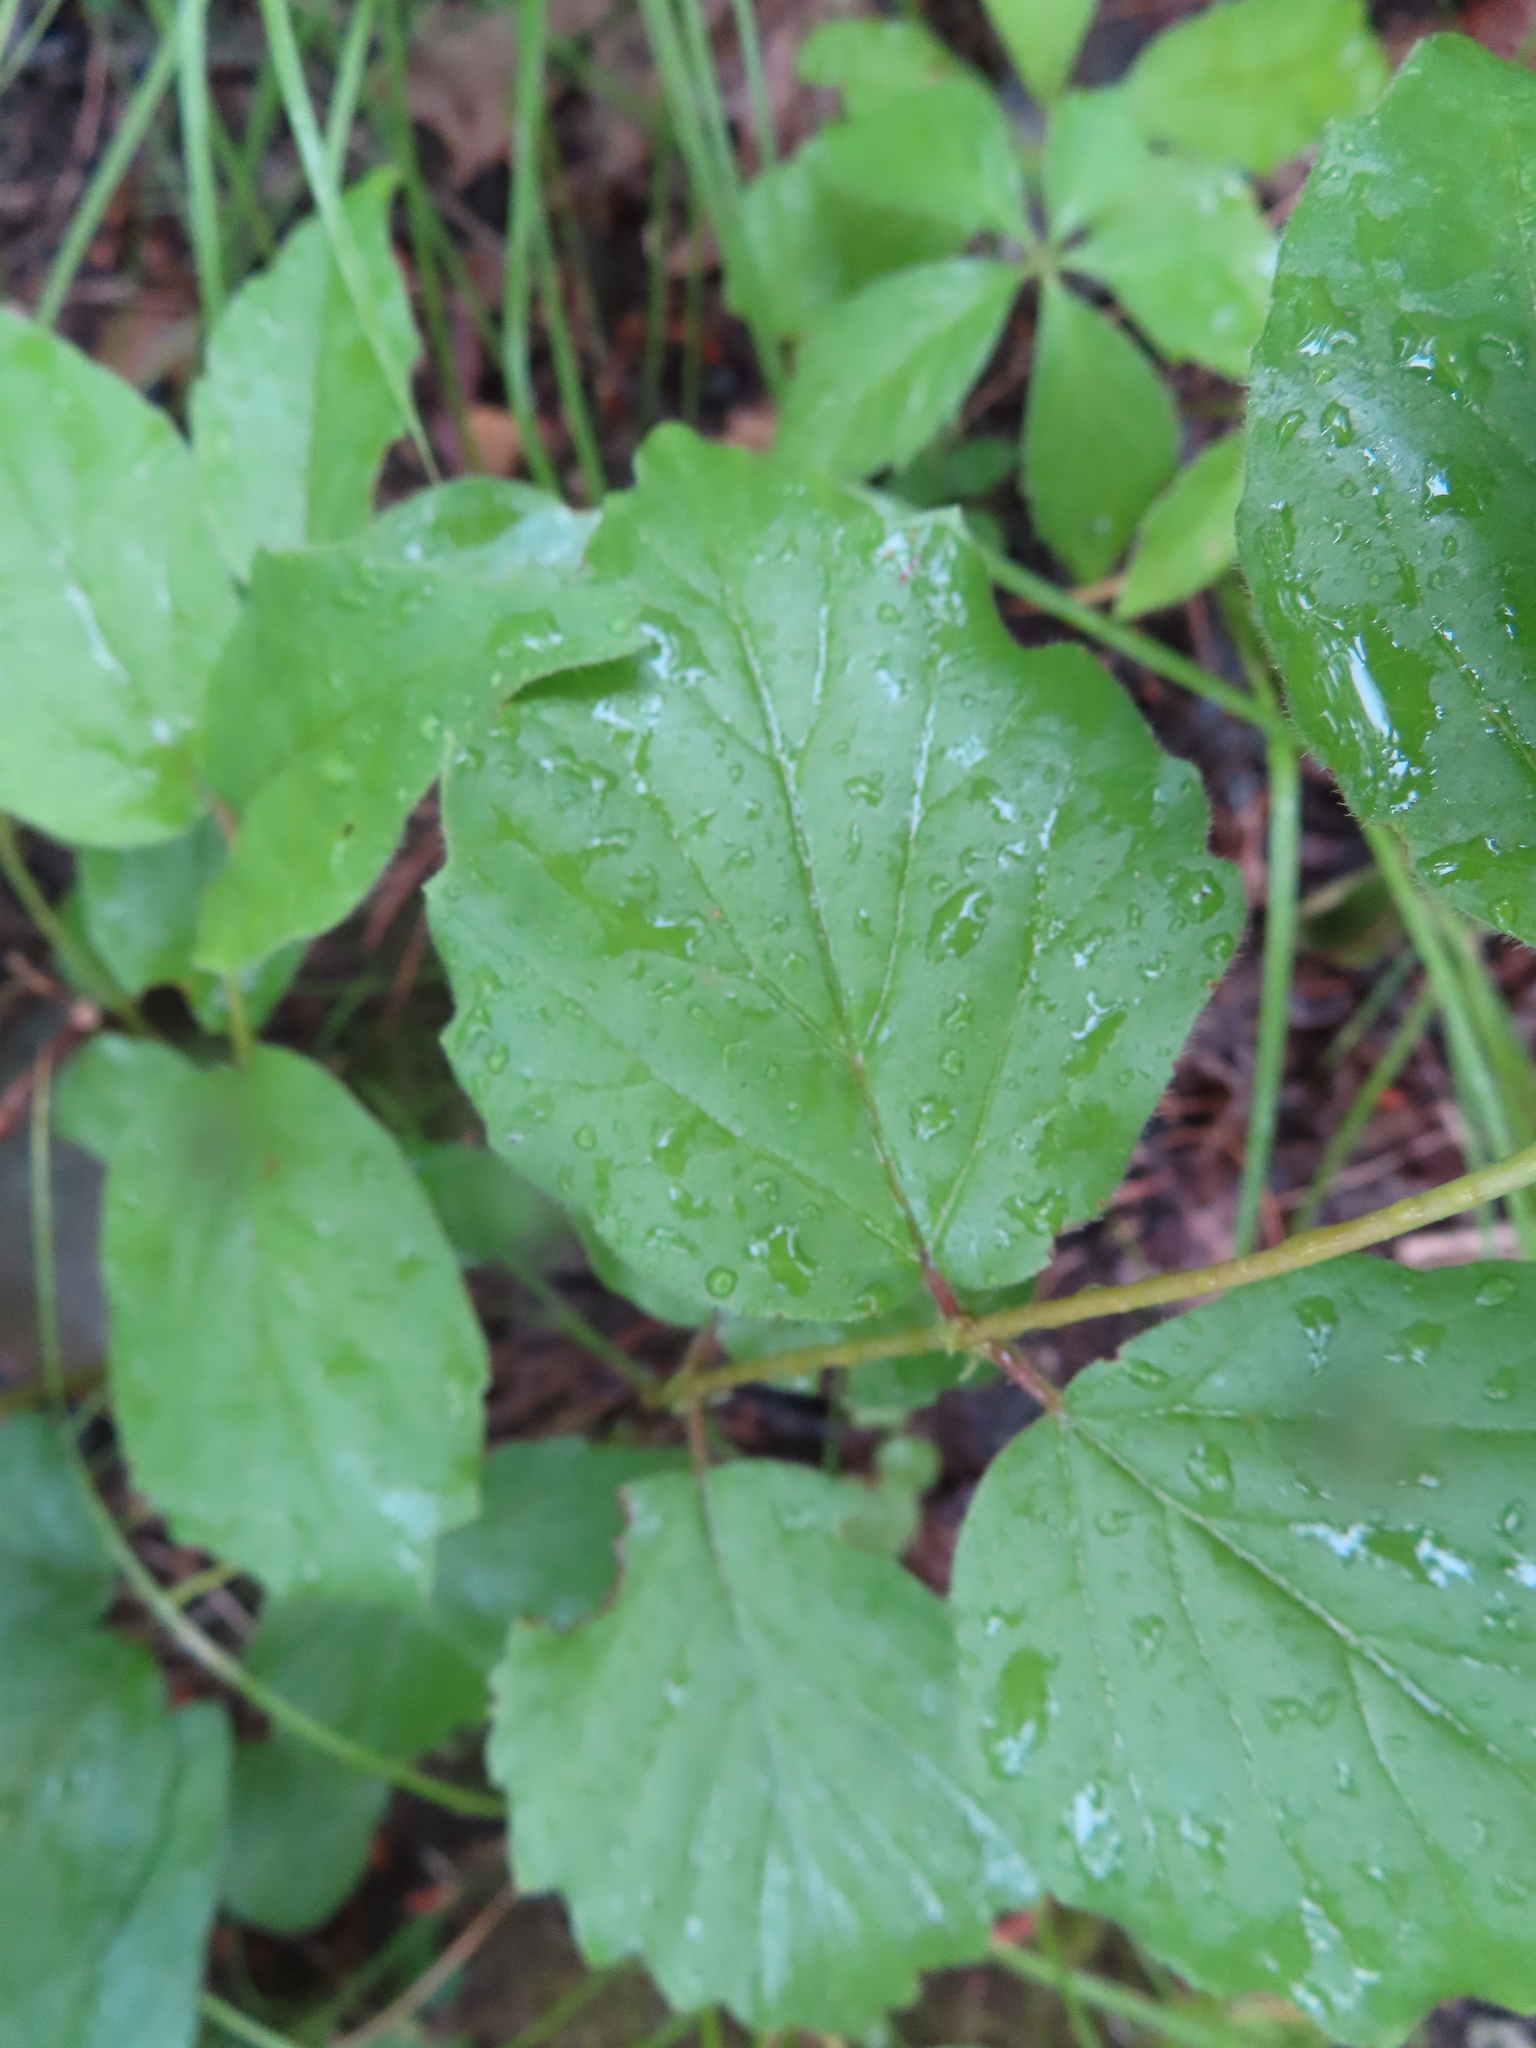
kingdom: Plantae
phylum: Tracheophyta
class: Magnoliopsida
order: Dipsacales
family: Viburnaceae
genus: Viburnum
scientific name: Viburnum rafinesqueanum
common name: Downy arrow-wood
